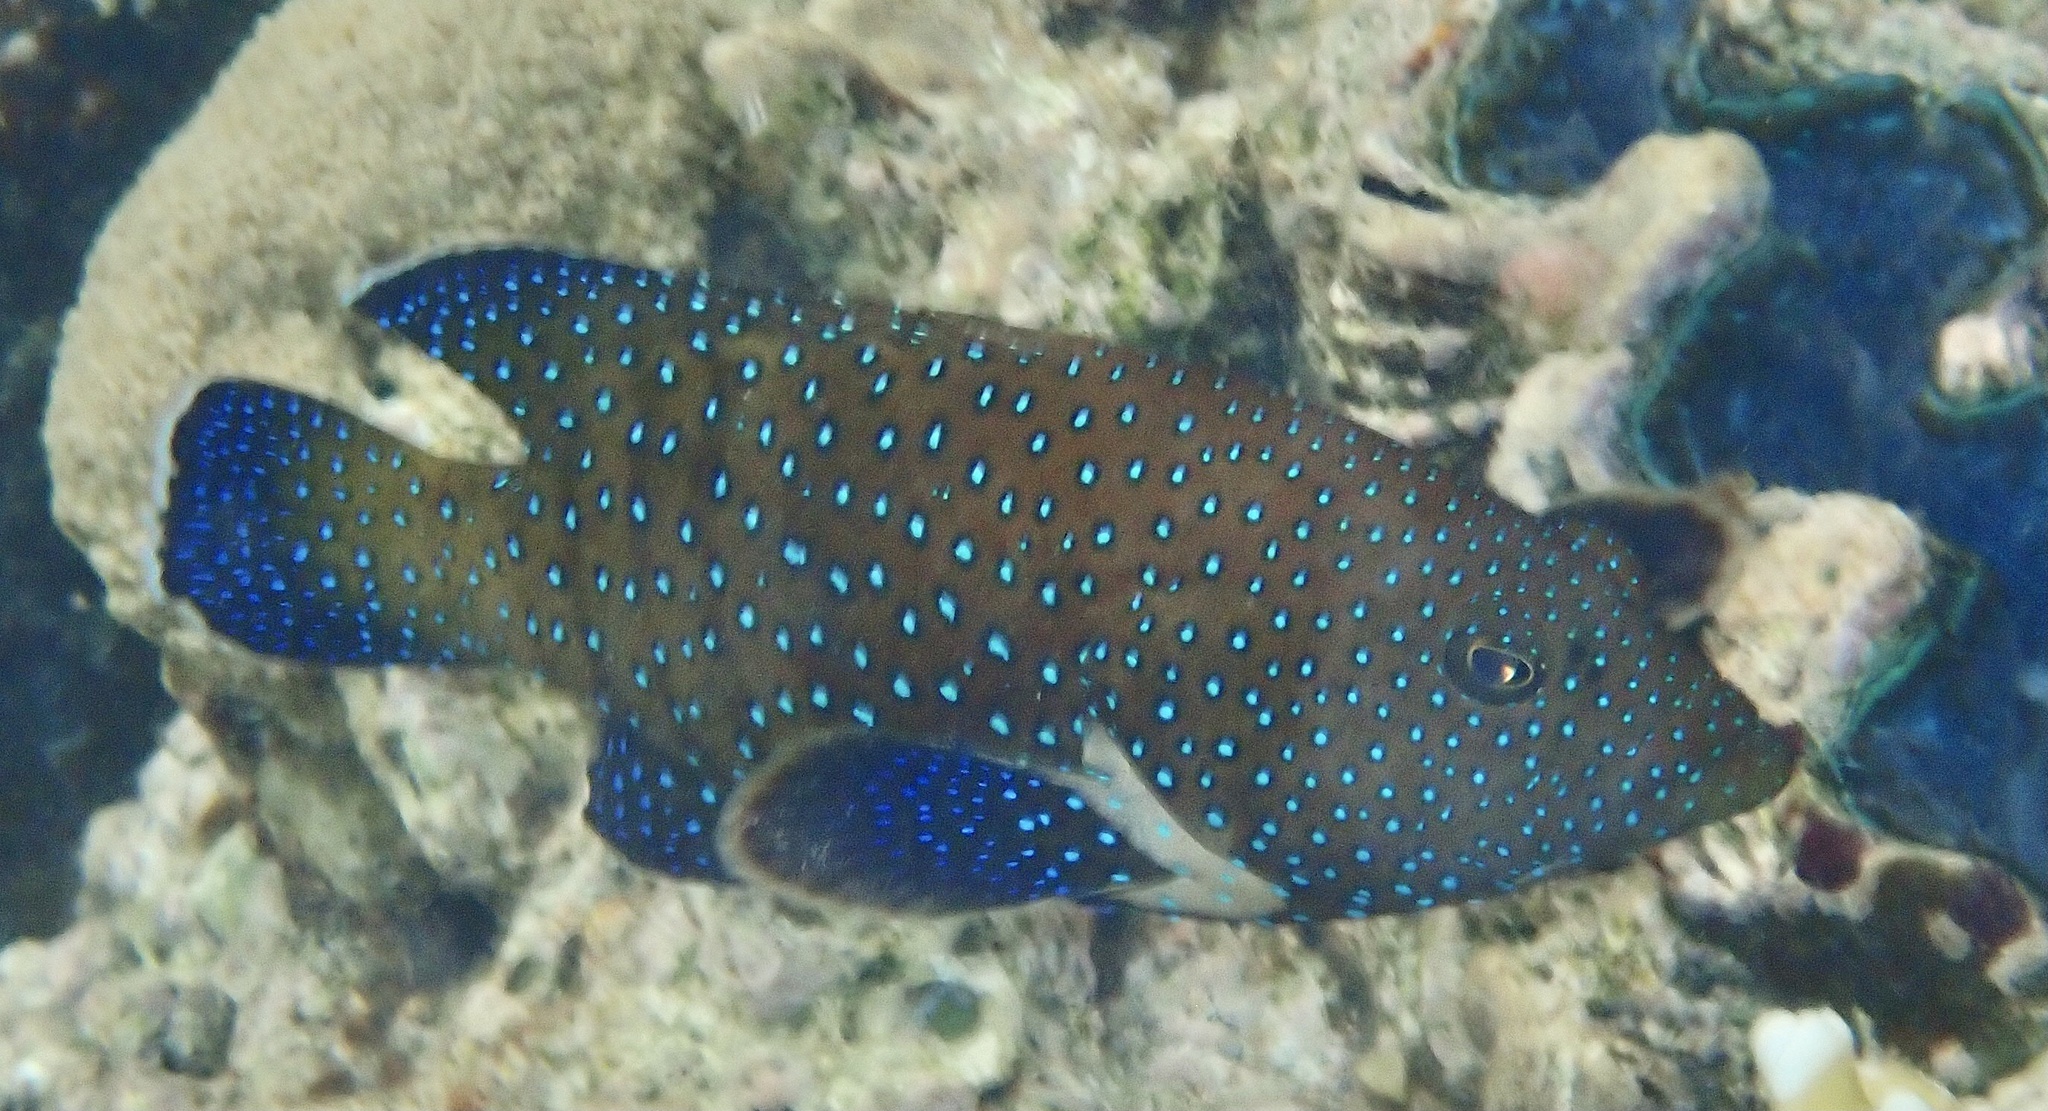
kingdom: Animalia
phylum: Chordata
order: Perciformes
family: Serranidae
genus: Cephalopholis
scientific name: Cephalopholis argus
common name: Peacock grouper
